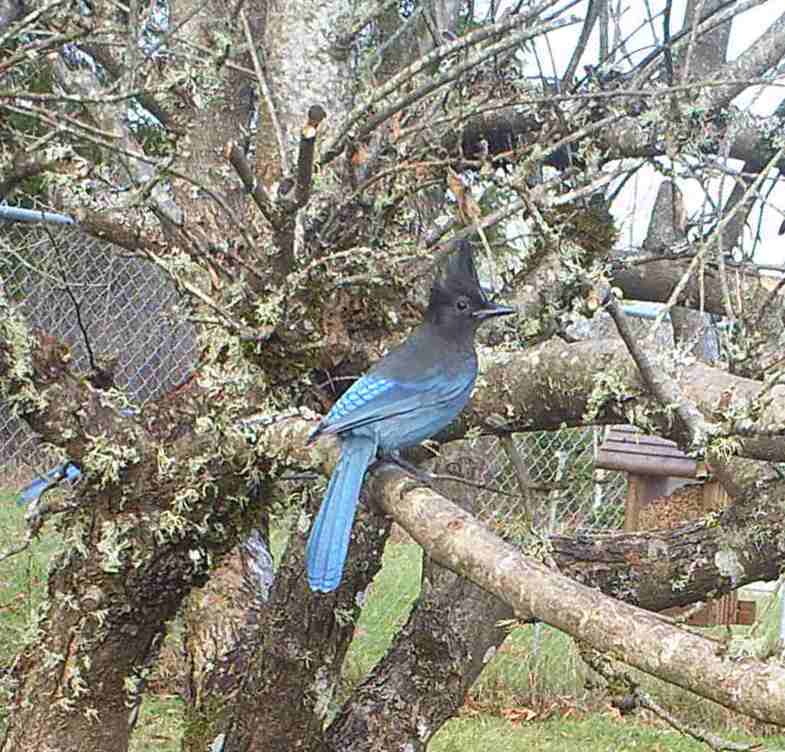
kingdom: Animalia
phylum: Chordata
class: Aves
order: Passeriformes
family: Corvidae
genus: Cyanocitta
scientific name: Cyanocitta stelleri
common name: Steller's jay
